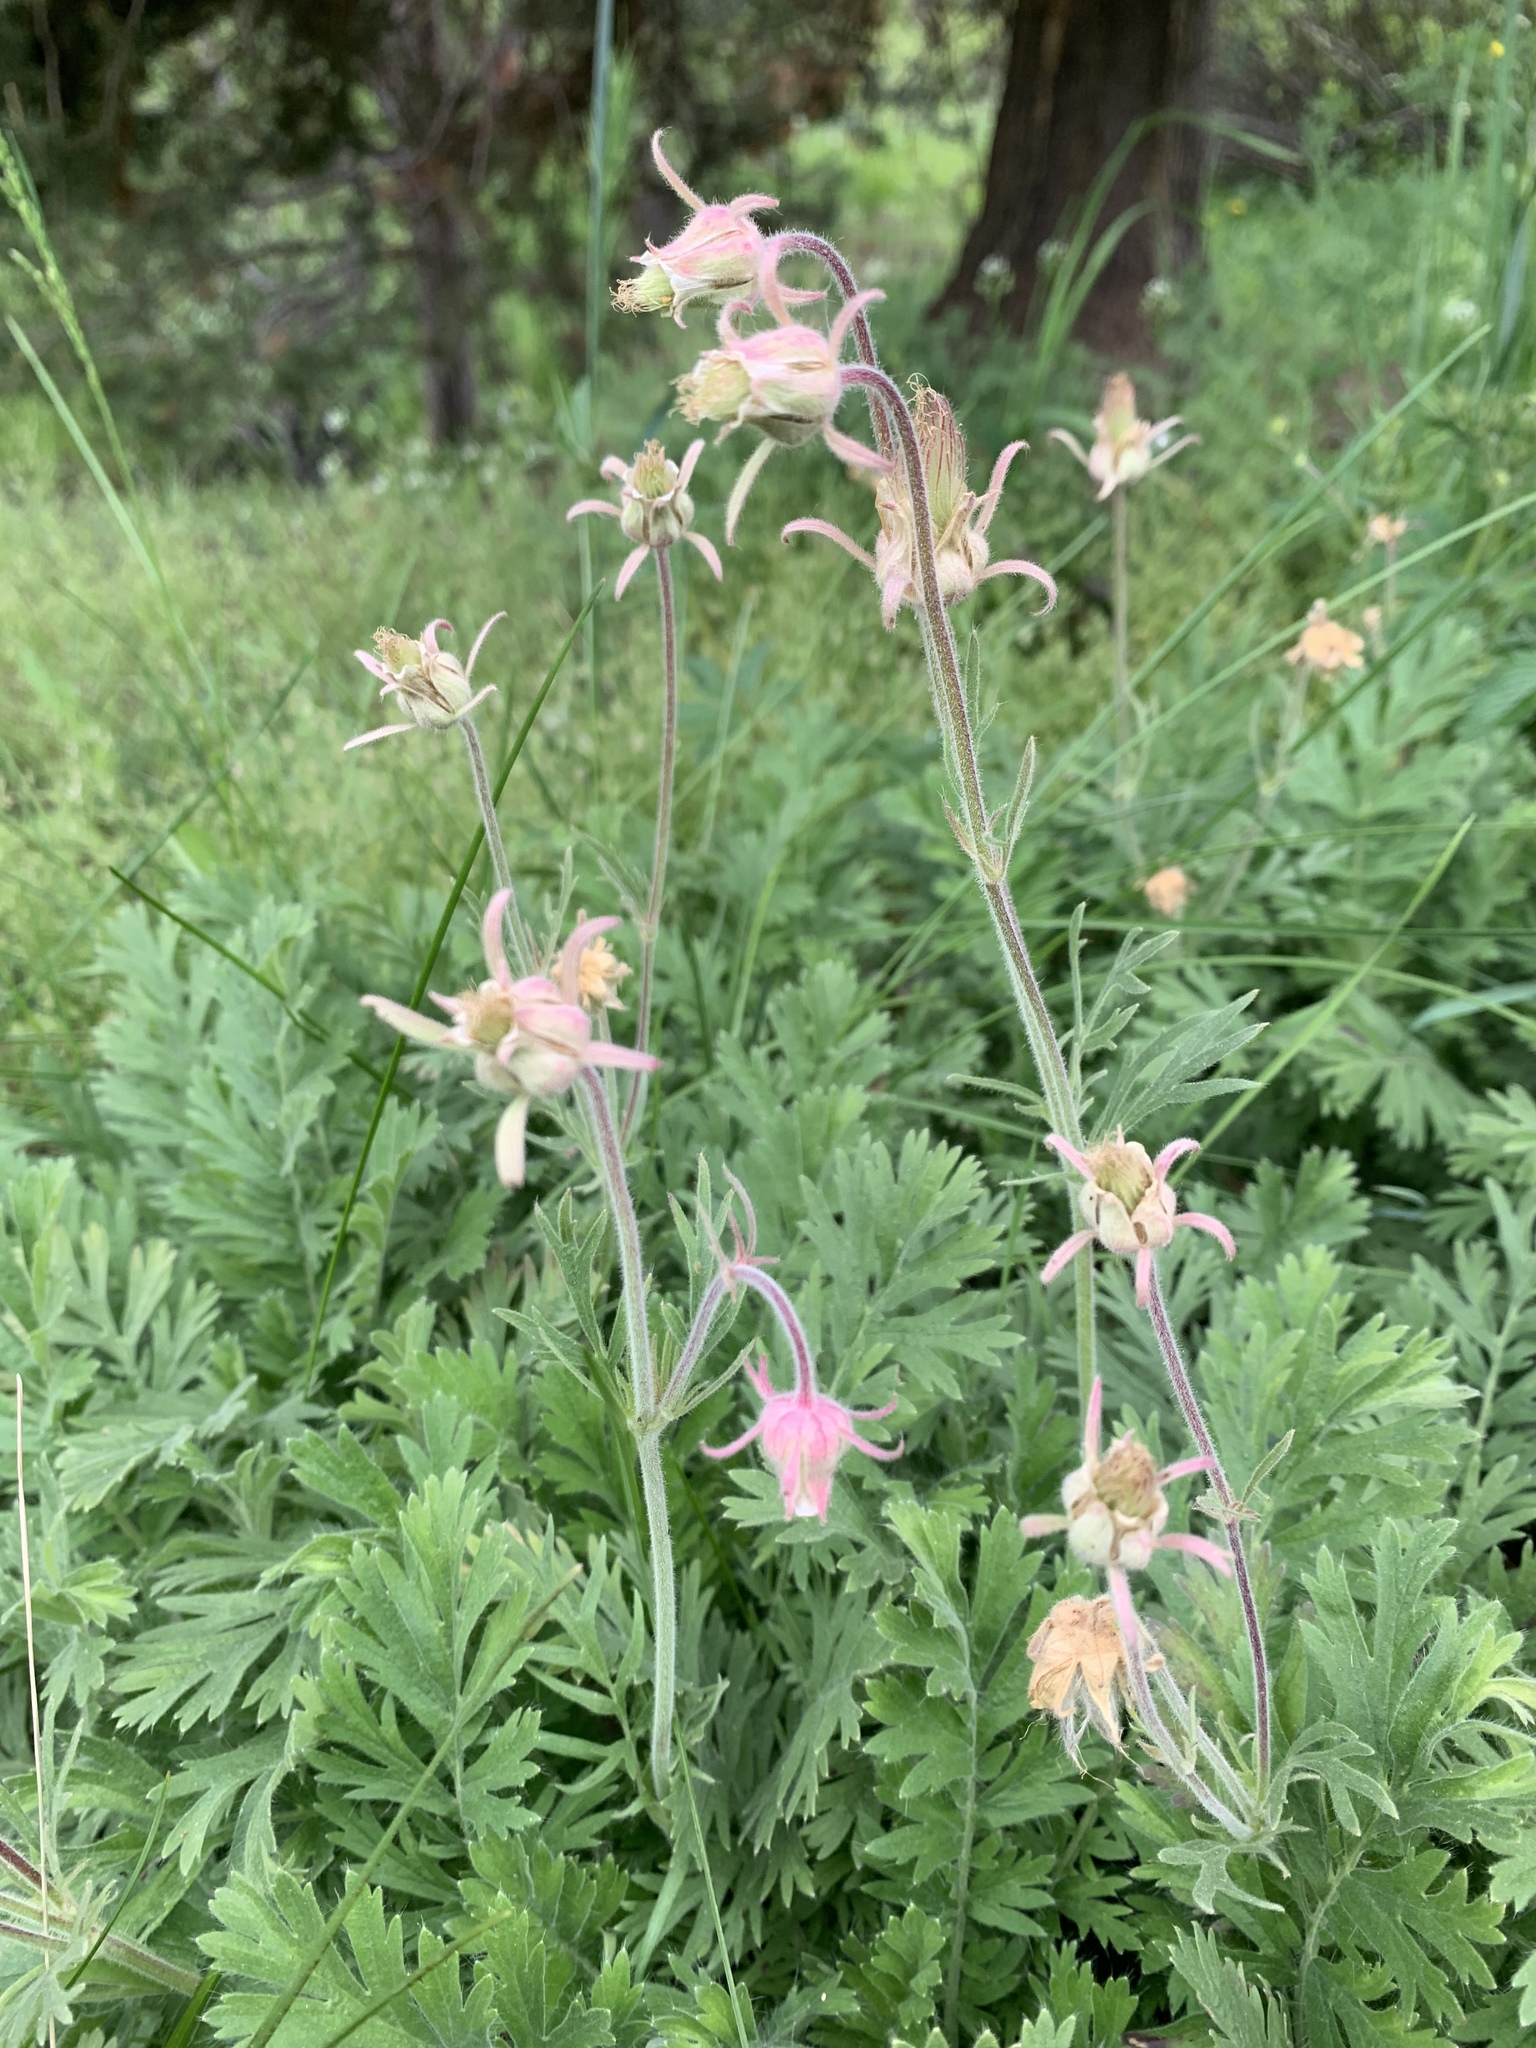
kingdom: Plantae
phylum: Tracheophyta
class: Magnoliopsida
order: Rosales
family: Rosaceae
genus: Geum
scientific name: Geum triflorum
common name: Old man's whiskers
